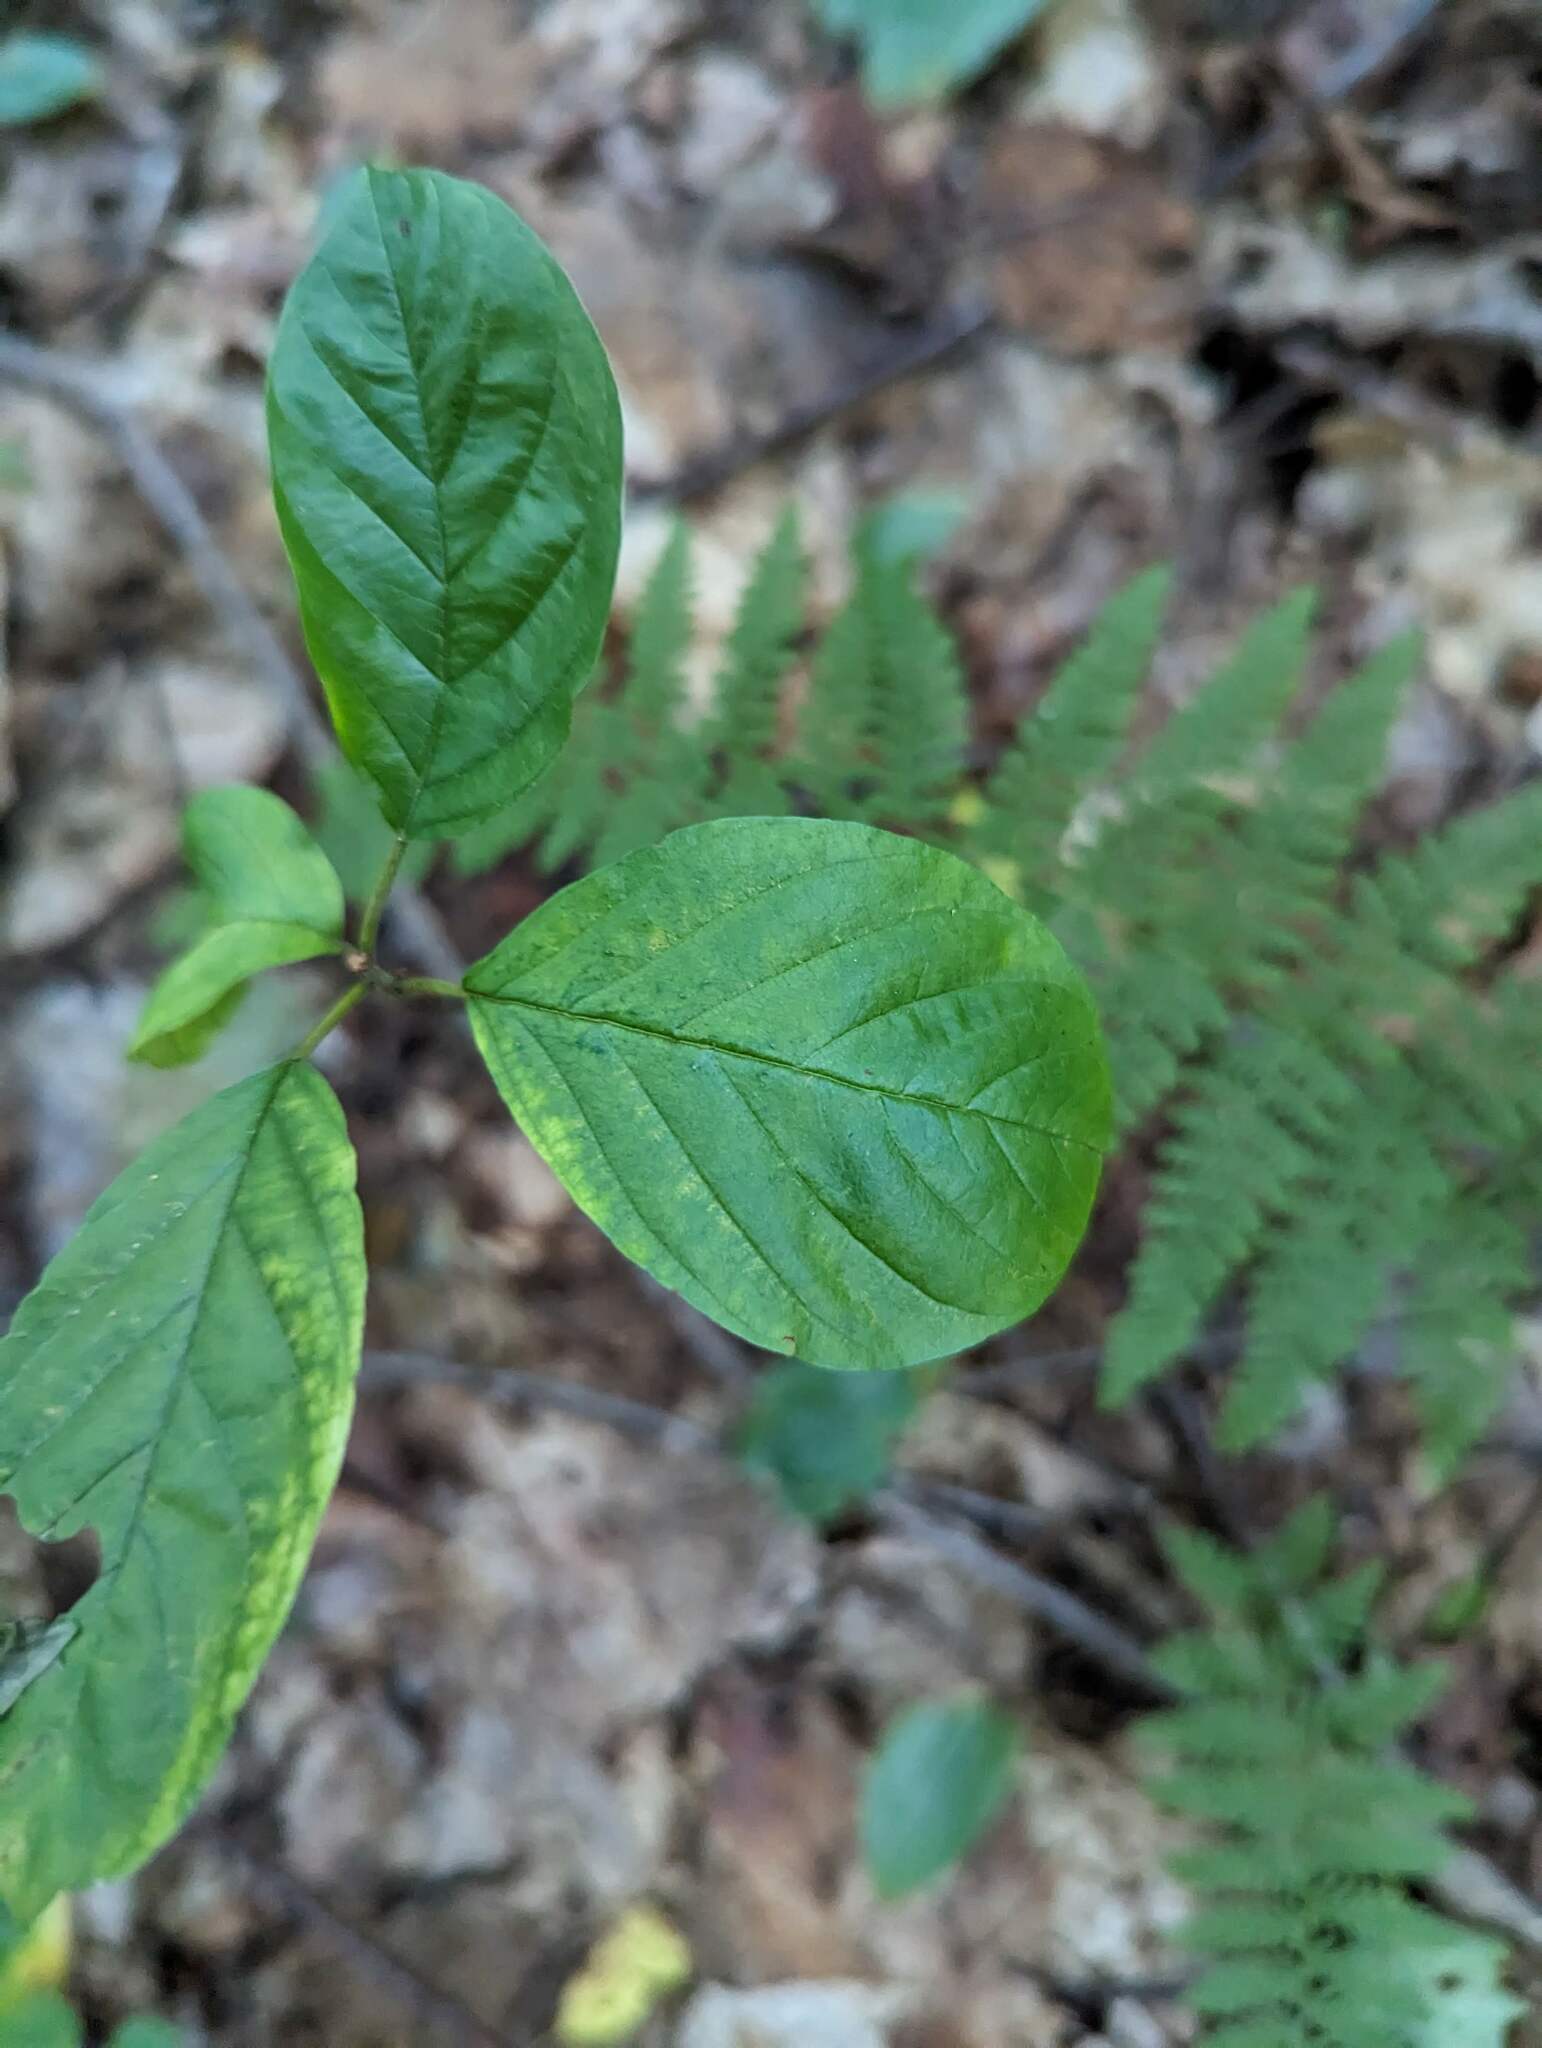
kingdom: Plantae
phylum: Tracheophyta
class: Magnoliopsida
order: Rosales
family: Rhamnaceae
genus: Frangula
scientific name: Frangula alnus
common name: Alder buckthorn
